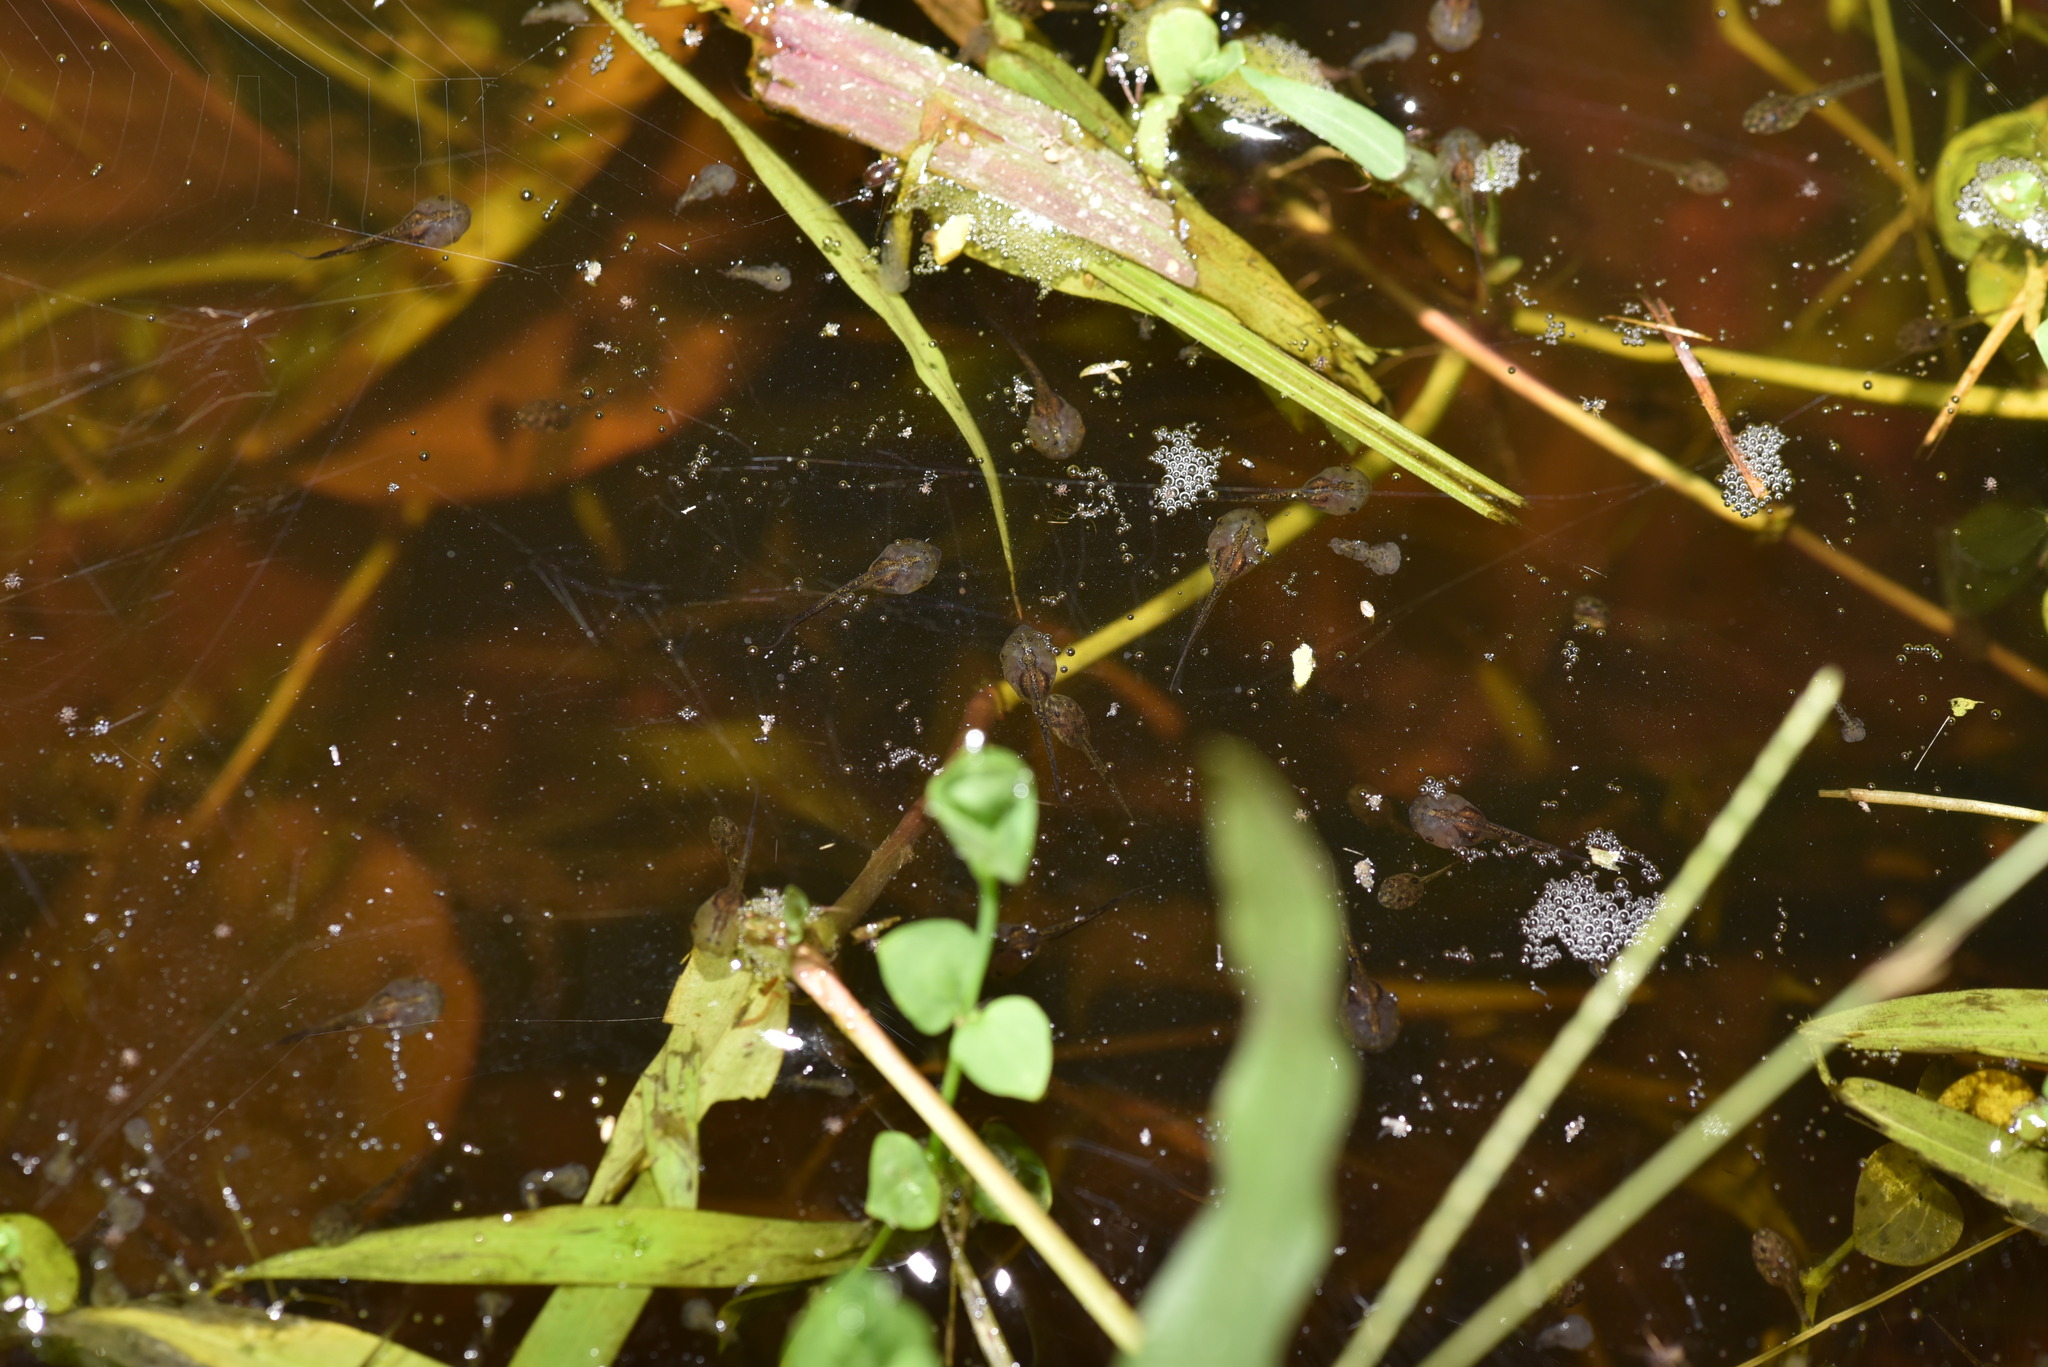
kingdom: Animalia
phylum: Chordata
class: Amphibia
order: Anura
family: Microhylidae
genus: Microhyla
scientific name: Microhyla fissipes
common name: Ornate narrow-mouthed frog
